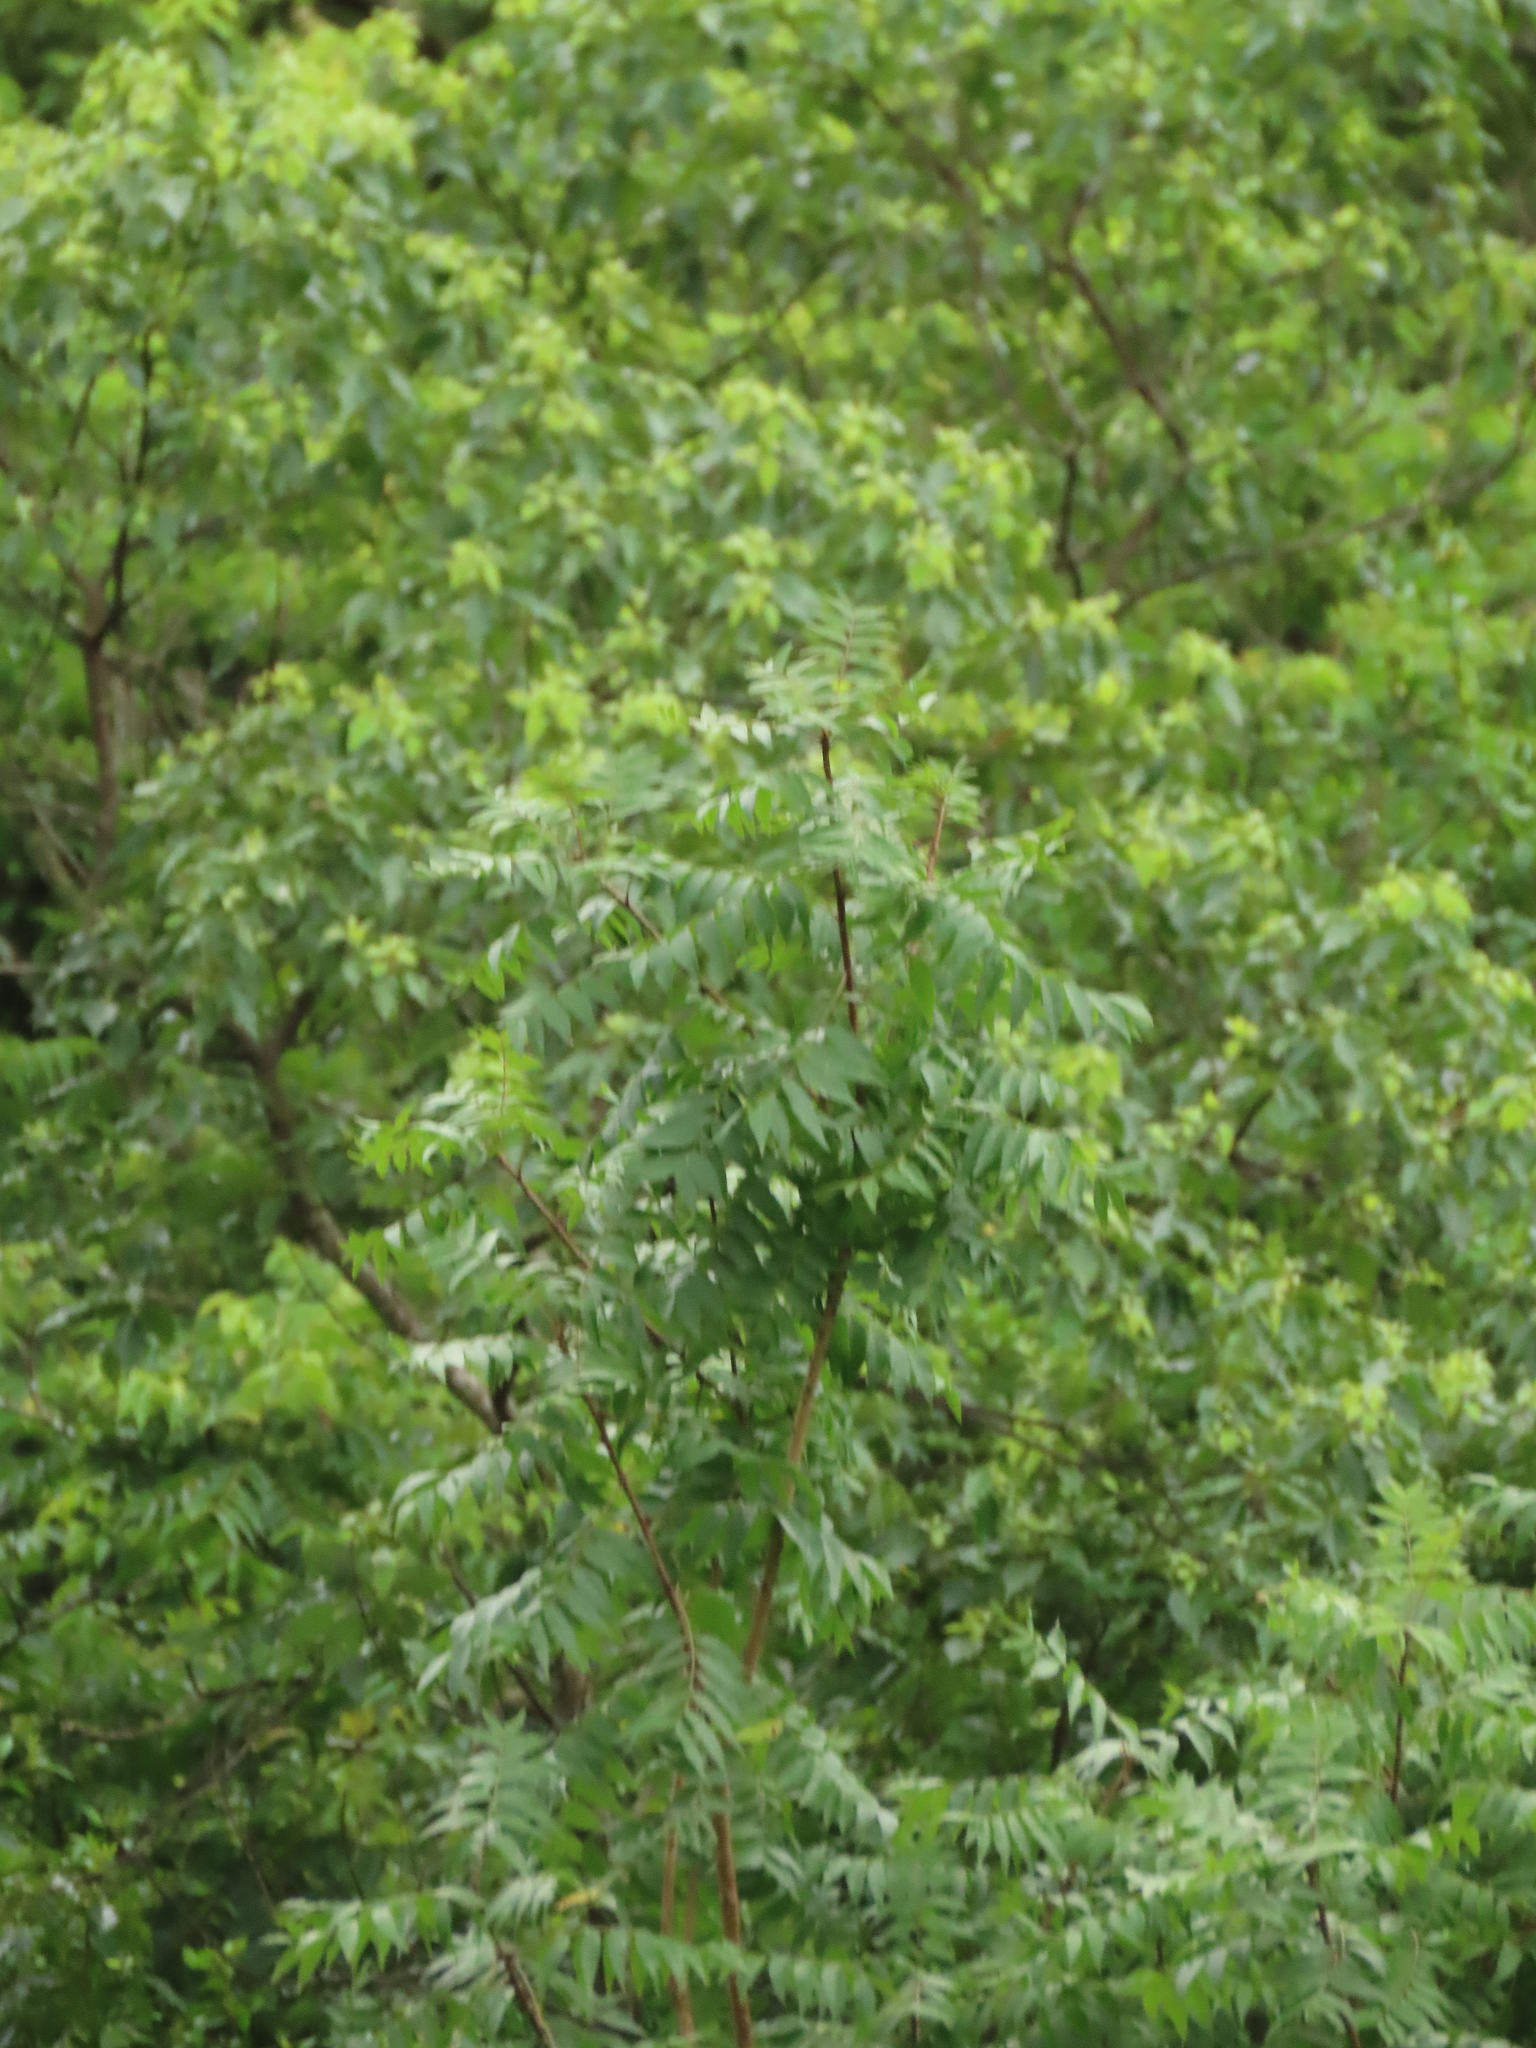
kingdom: Plantae
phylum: Tracheophyta
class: Magnoliopsida
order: Sapindales
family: Anacardiaceae
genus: Pistacia
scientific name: Pistacia chinensis
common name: Chinese pistache
